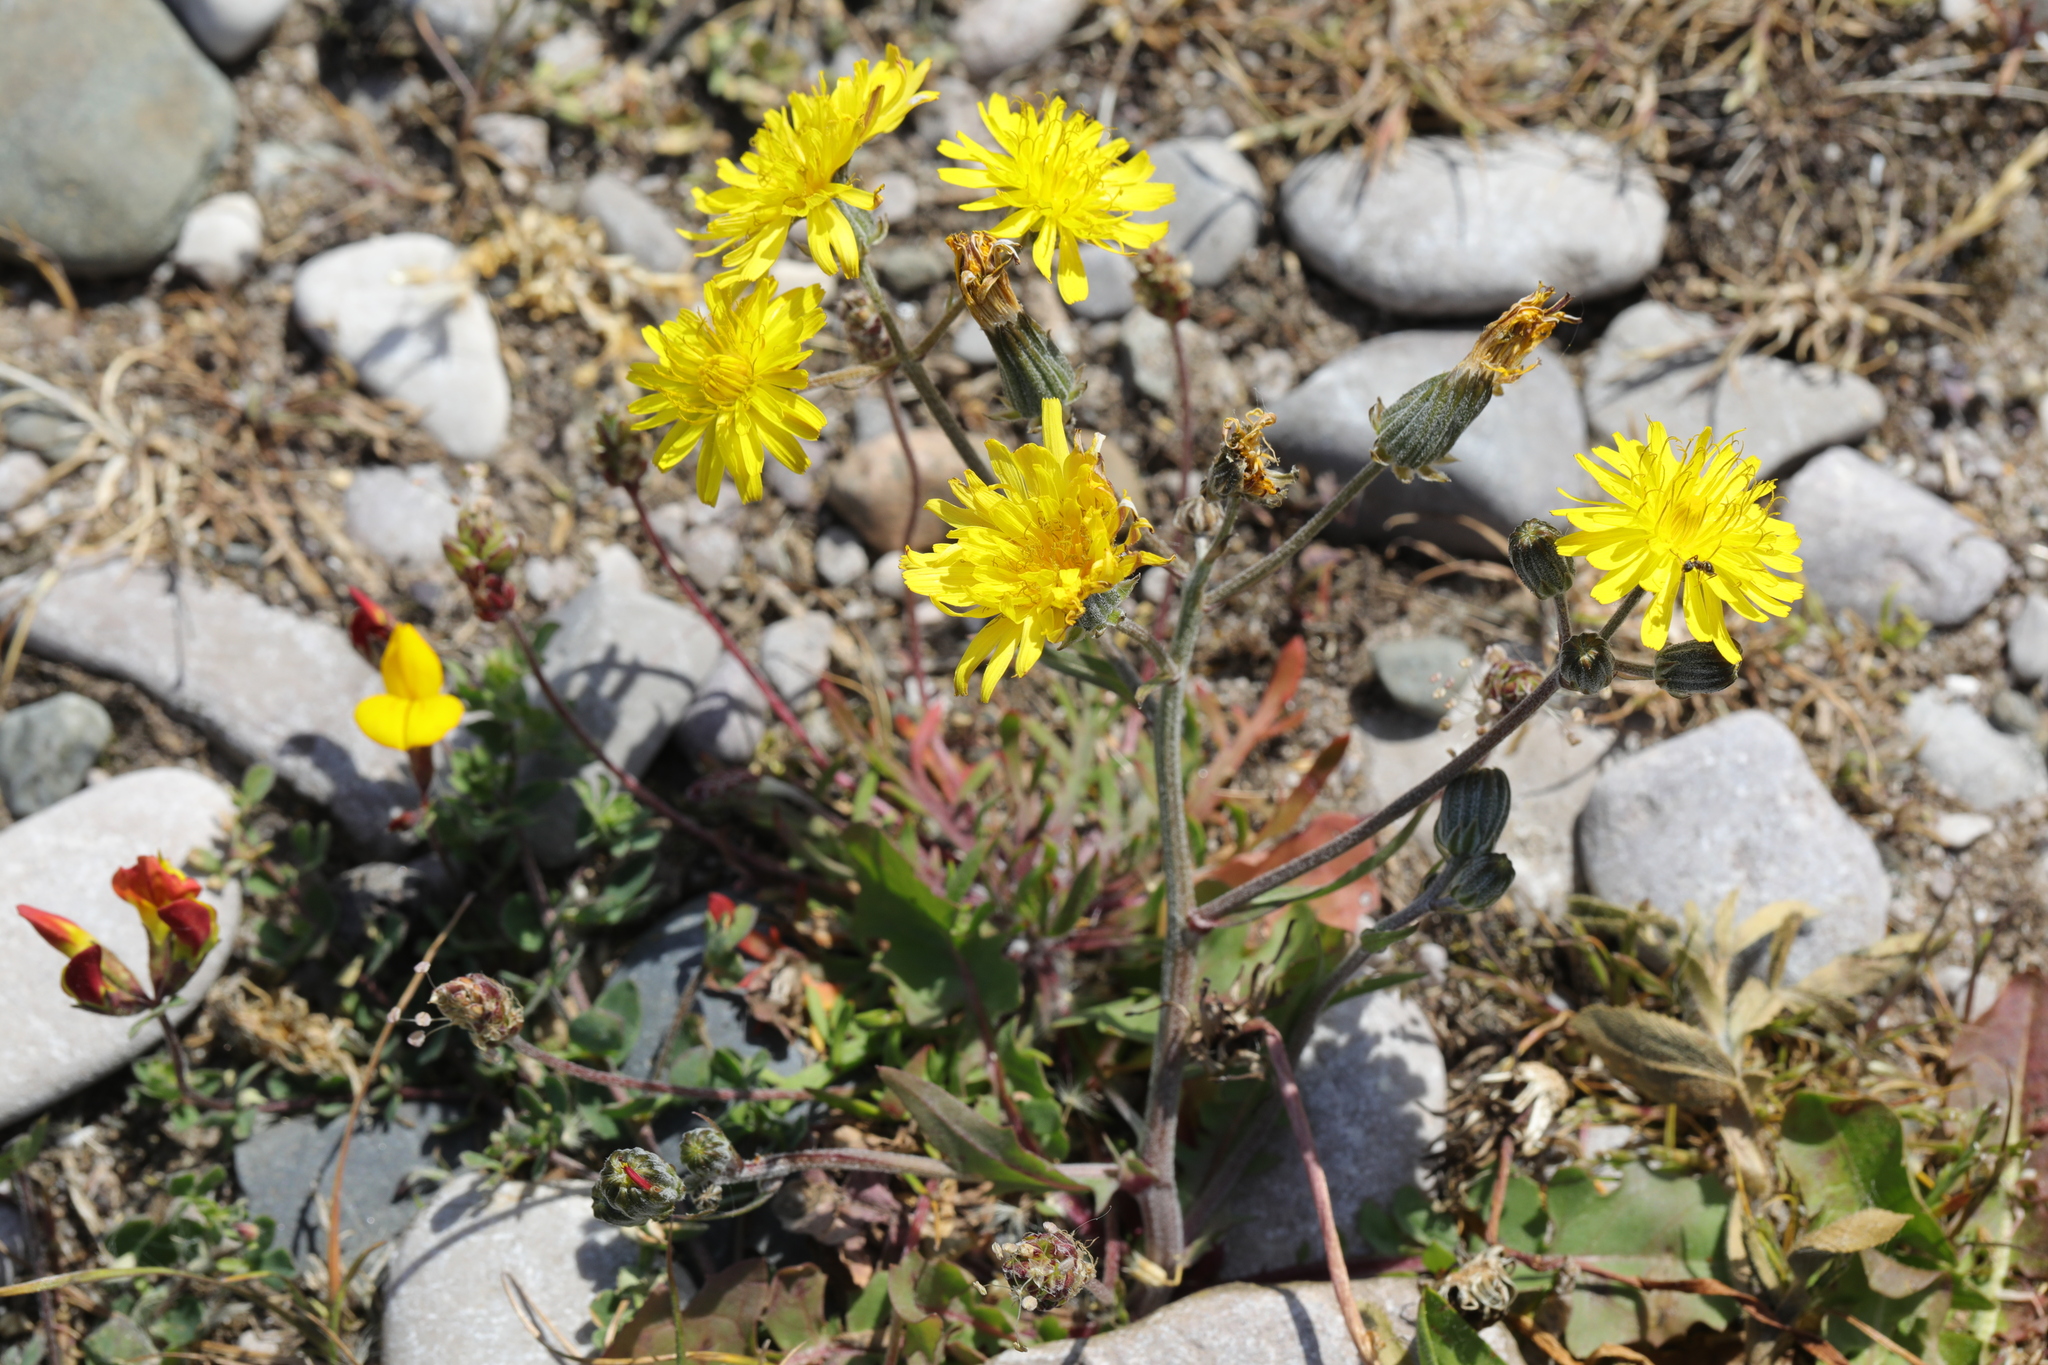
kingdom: Plantae
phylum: Tracheophyta
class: Magnoliopsida
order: Asterales
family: Asteraceae
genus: Crepis
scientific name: Crepis vesicaria
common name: Beaked hawksbeard
